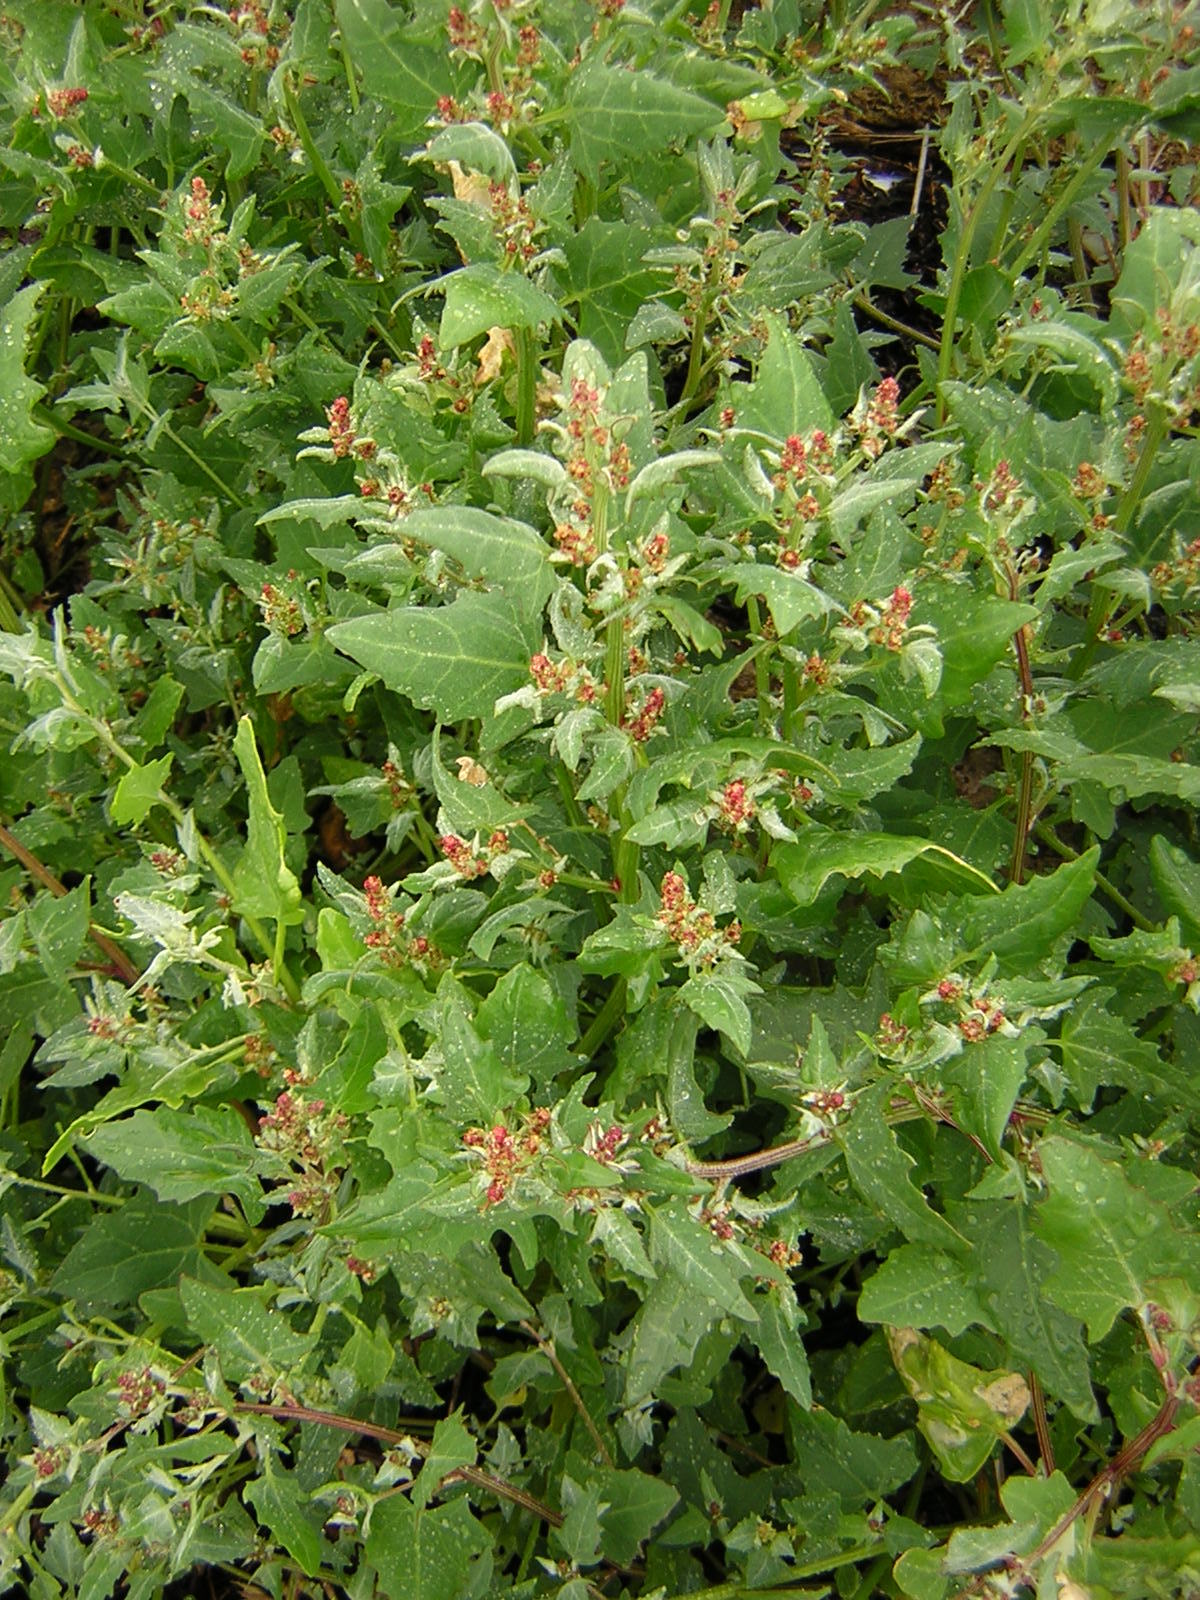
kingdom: Plantae
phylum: Tracheophyta
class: Magnoliopsida
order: Caryophyllales
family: Amaranthaceae
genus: Oxybasis
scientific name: Oxybasis rubra
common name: Red goosefoot
